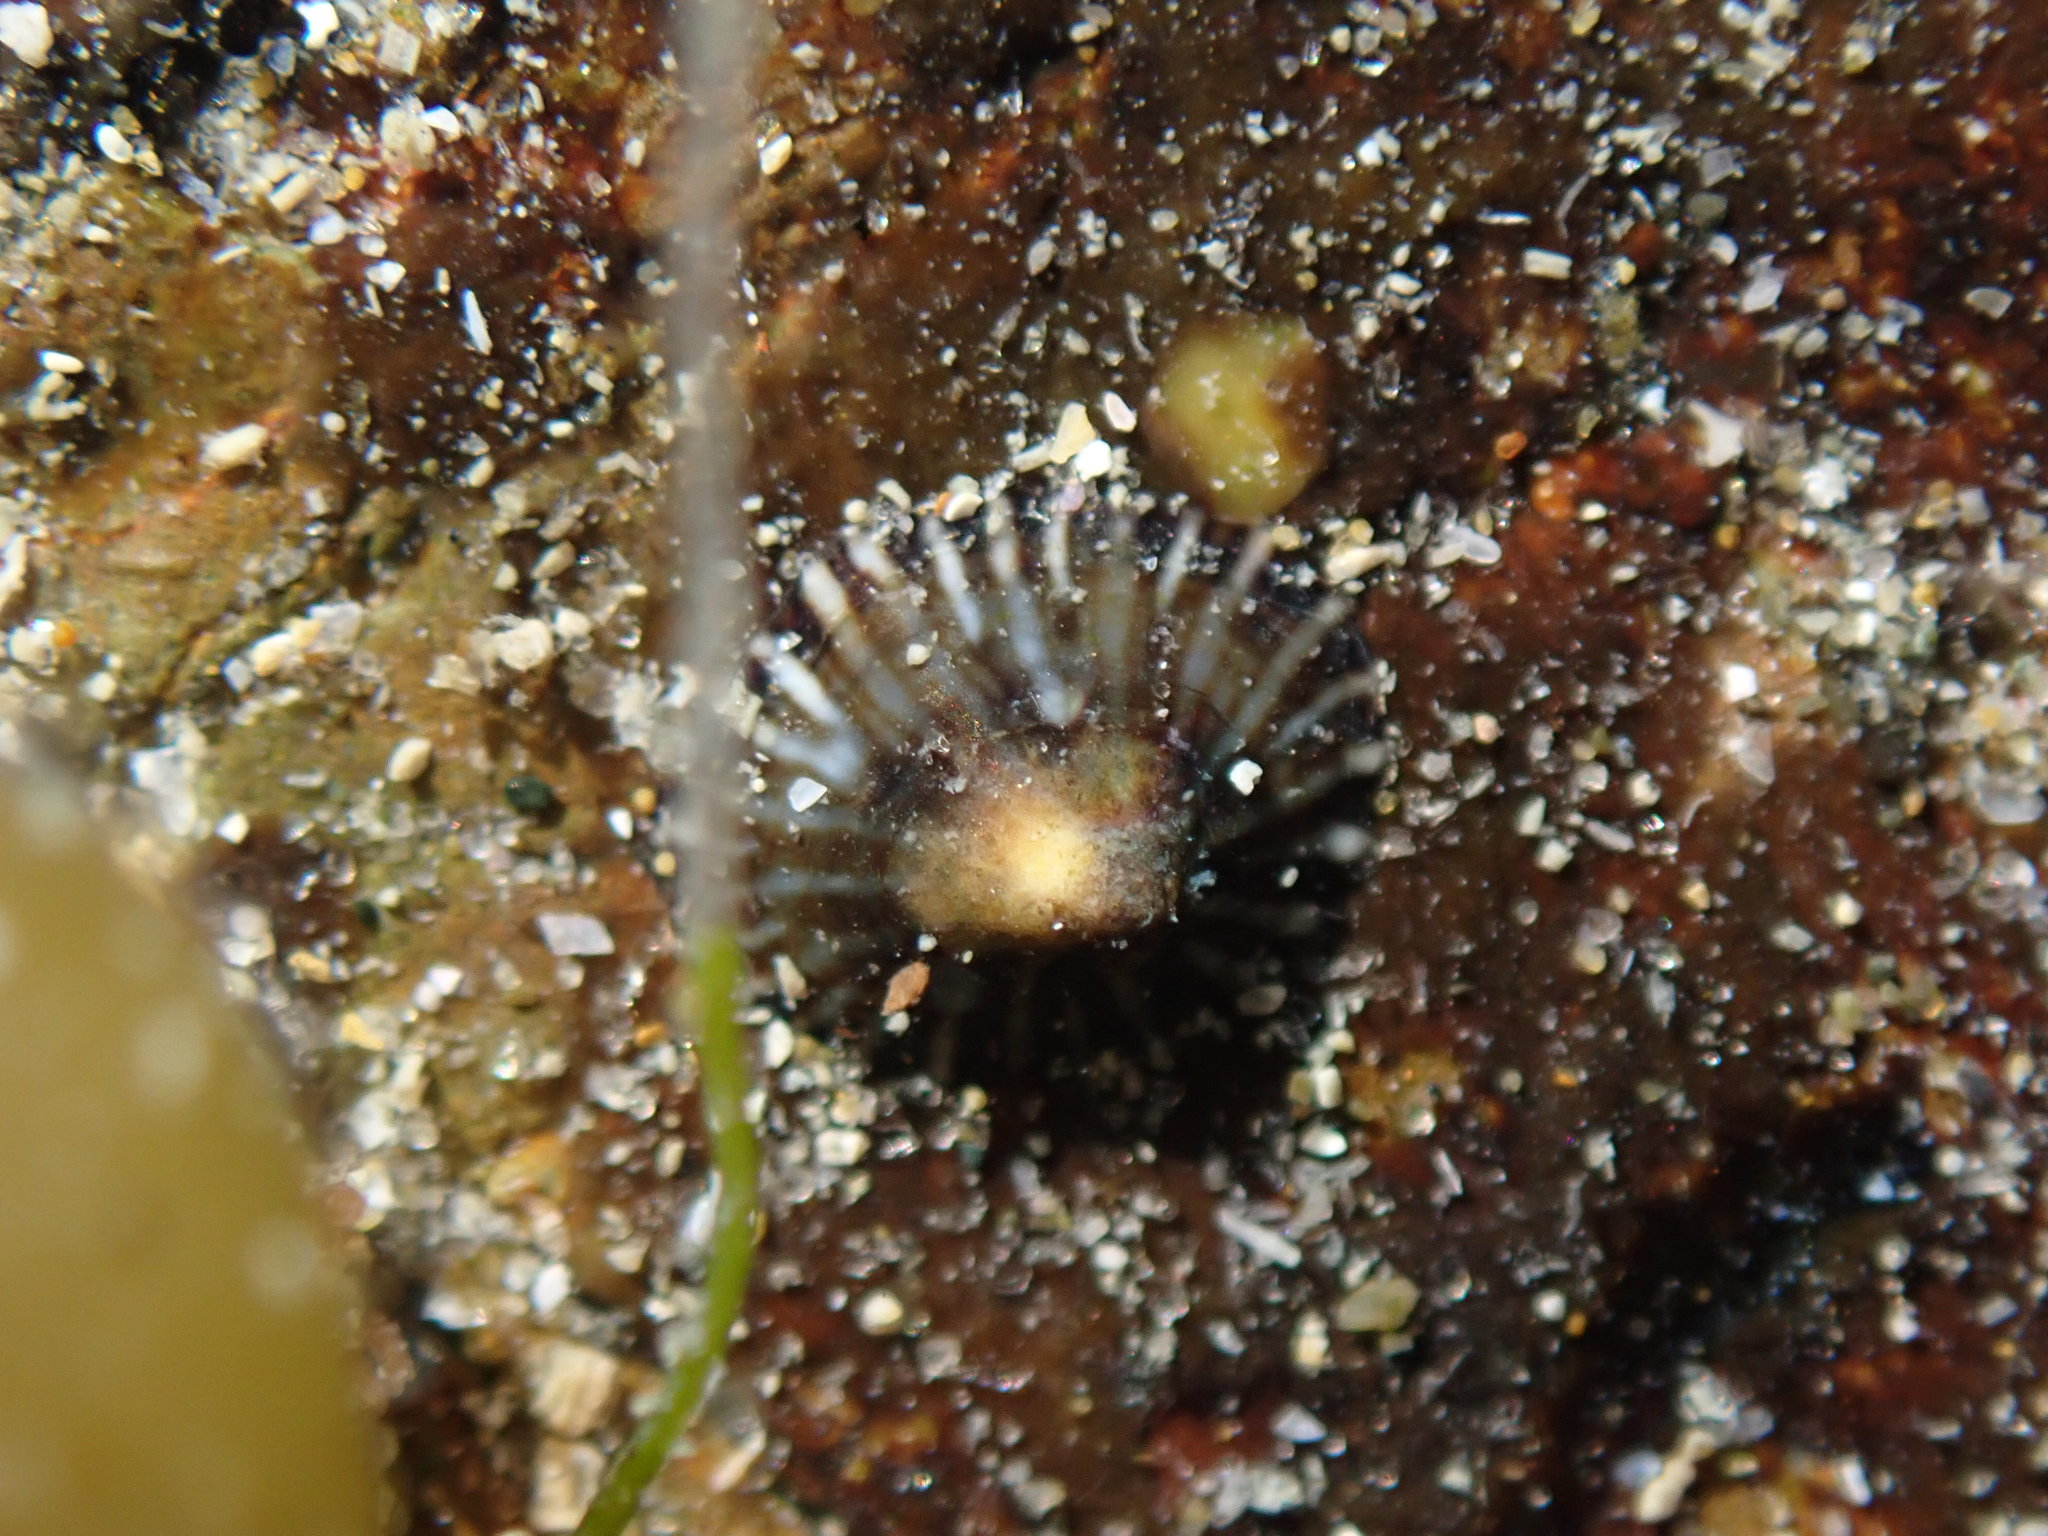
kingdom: Animalia
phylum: Mollusca
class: Gastropoda
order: Siphonariida
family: Siphonariidae
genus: Siphonaria
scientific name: Siphonaria propria
